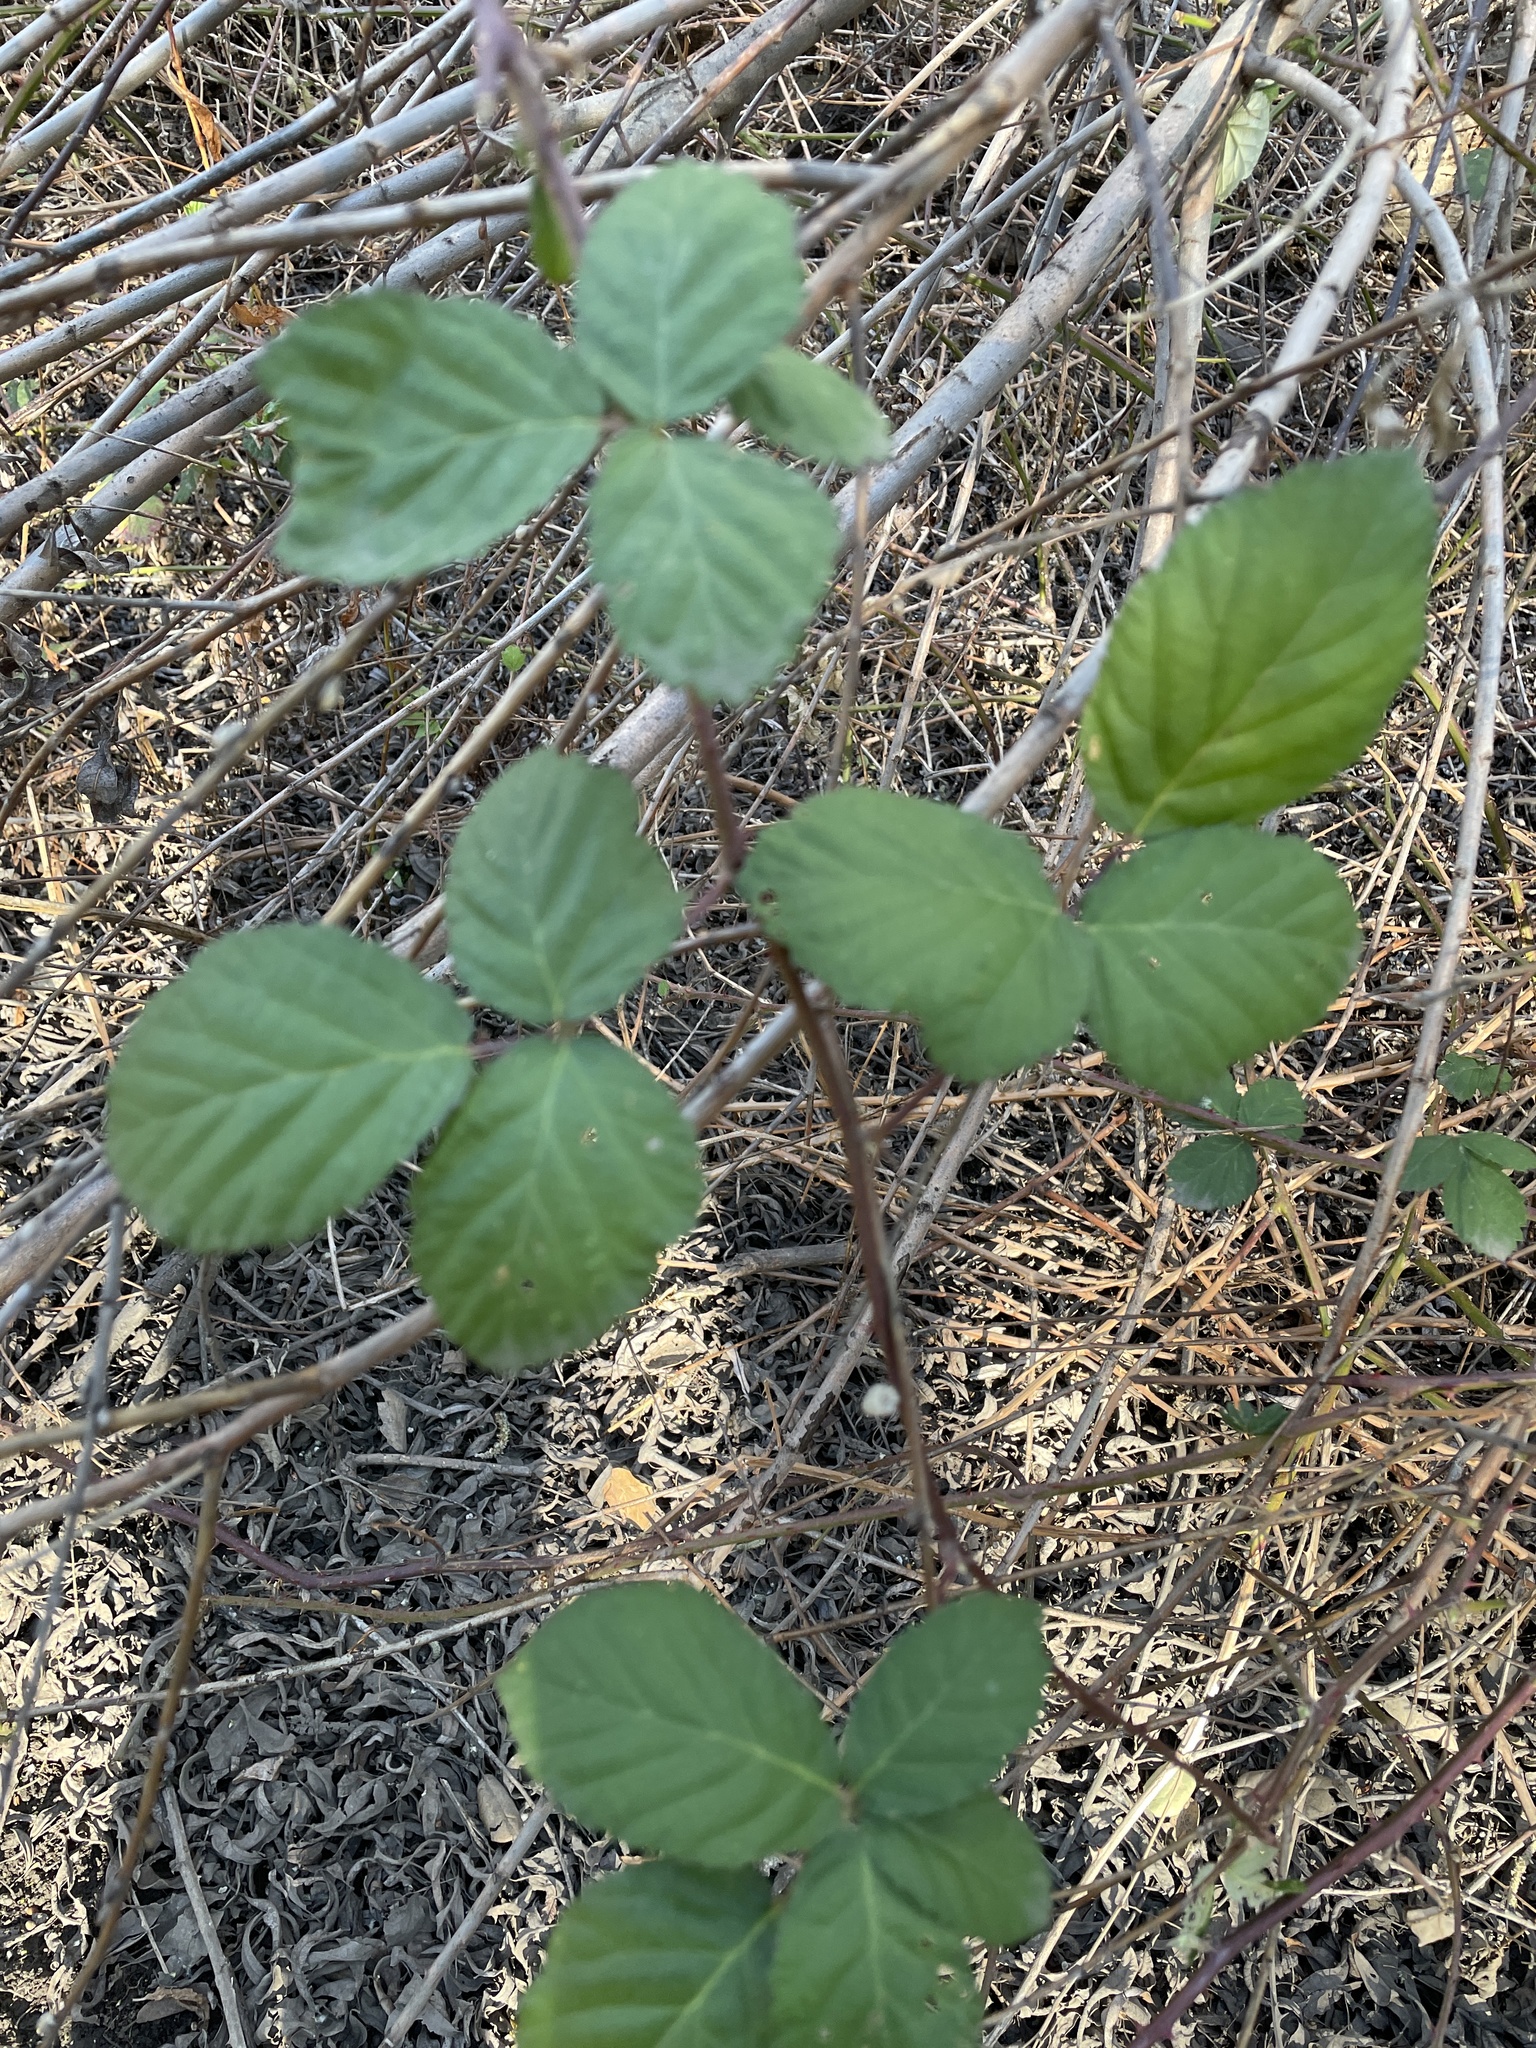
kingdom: Plantae
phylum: Tracheophyta
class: Magnoliopsida
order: Rosales
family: Rosaceae
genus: Rubus
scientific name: Rubus armeniacus
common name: Himalayan blackberry
